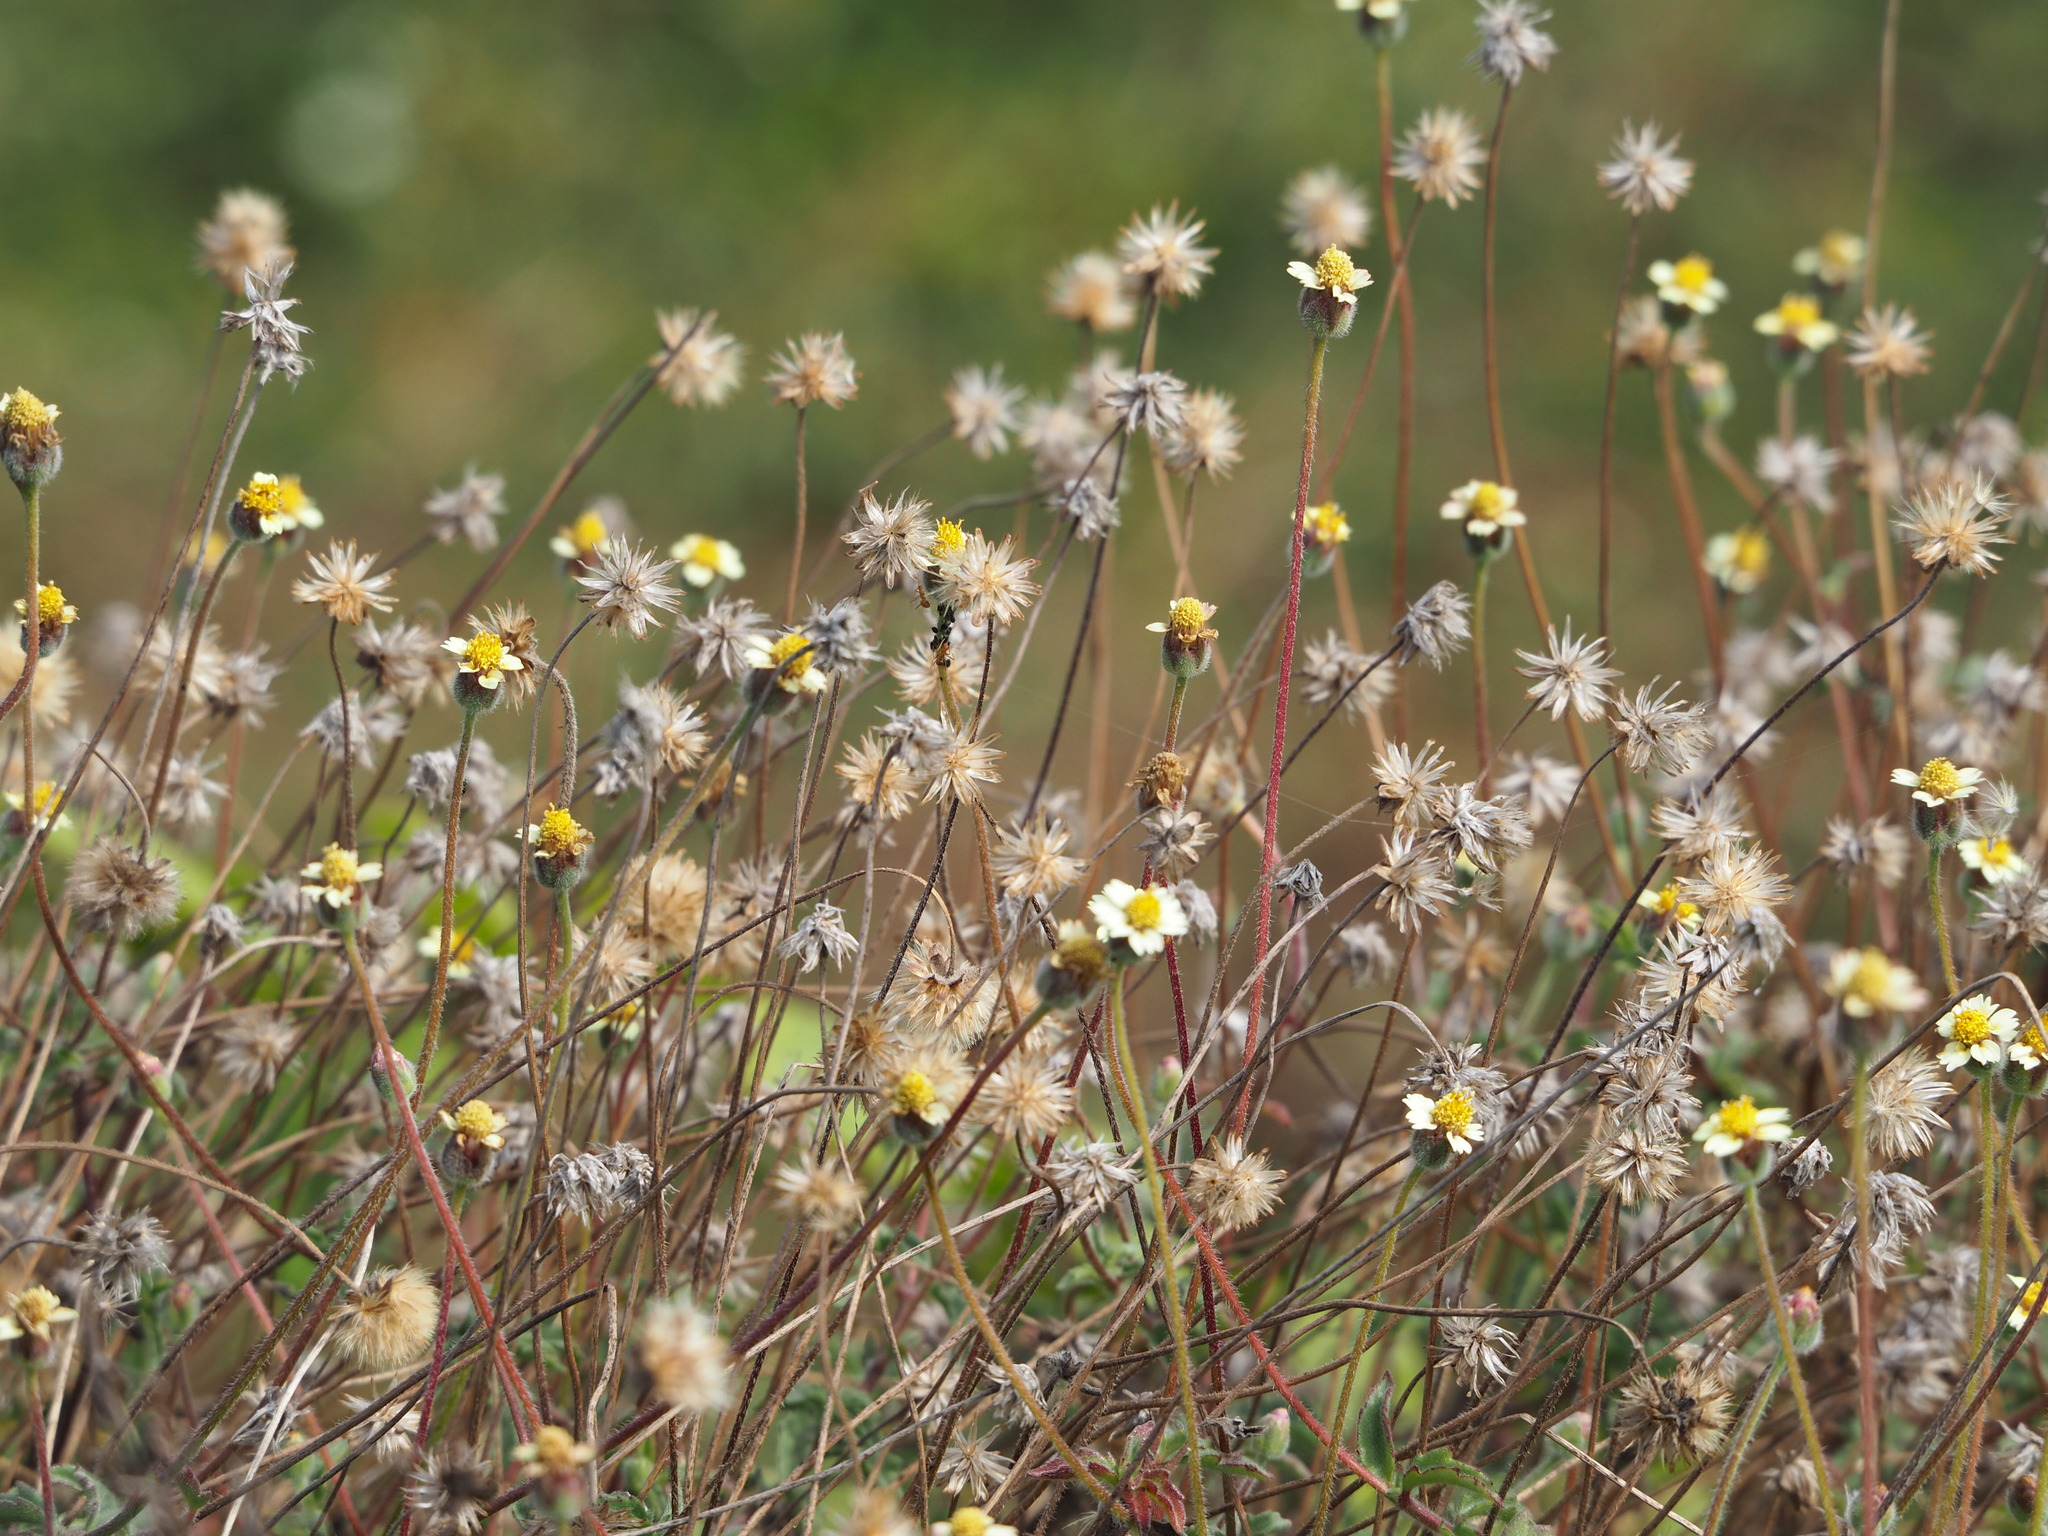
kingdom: Plantae
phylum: Tracheophyta
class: Magnoliopsida
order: Asterales
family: Asteraceae
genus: Tridax
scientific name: Tridax procumbens
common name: Coatbuttons
